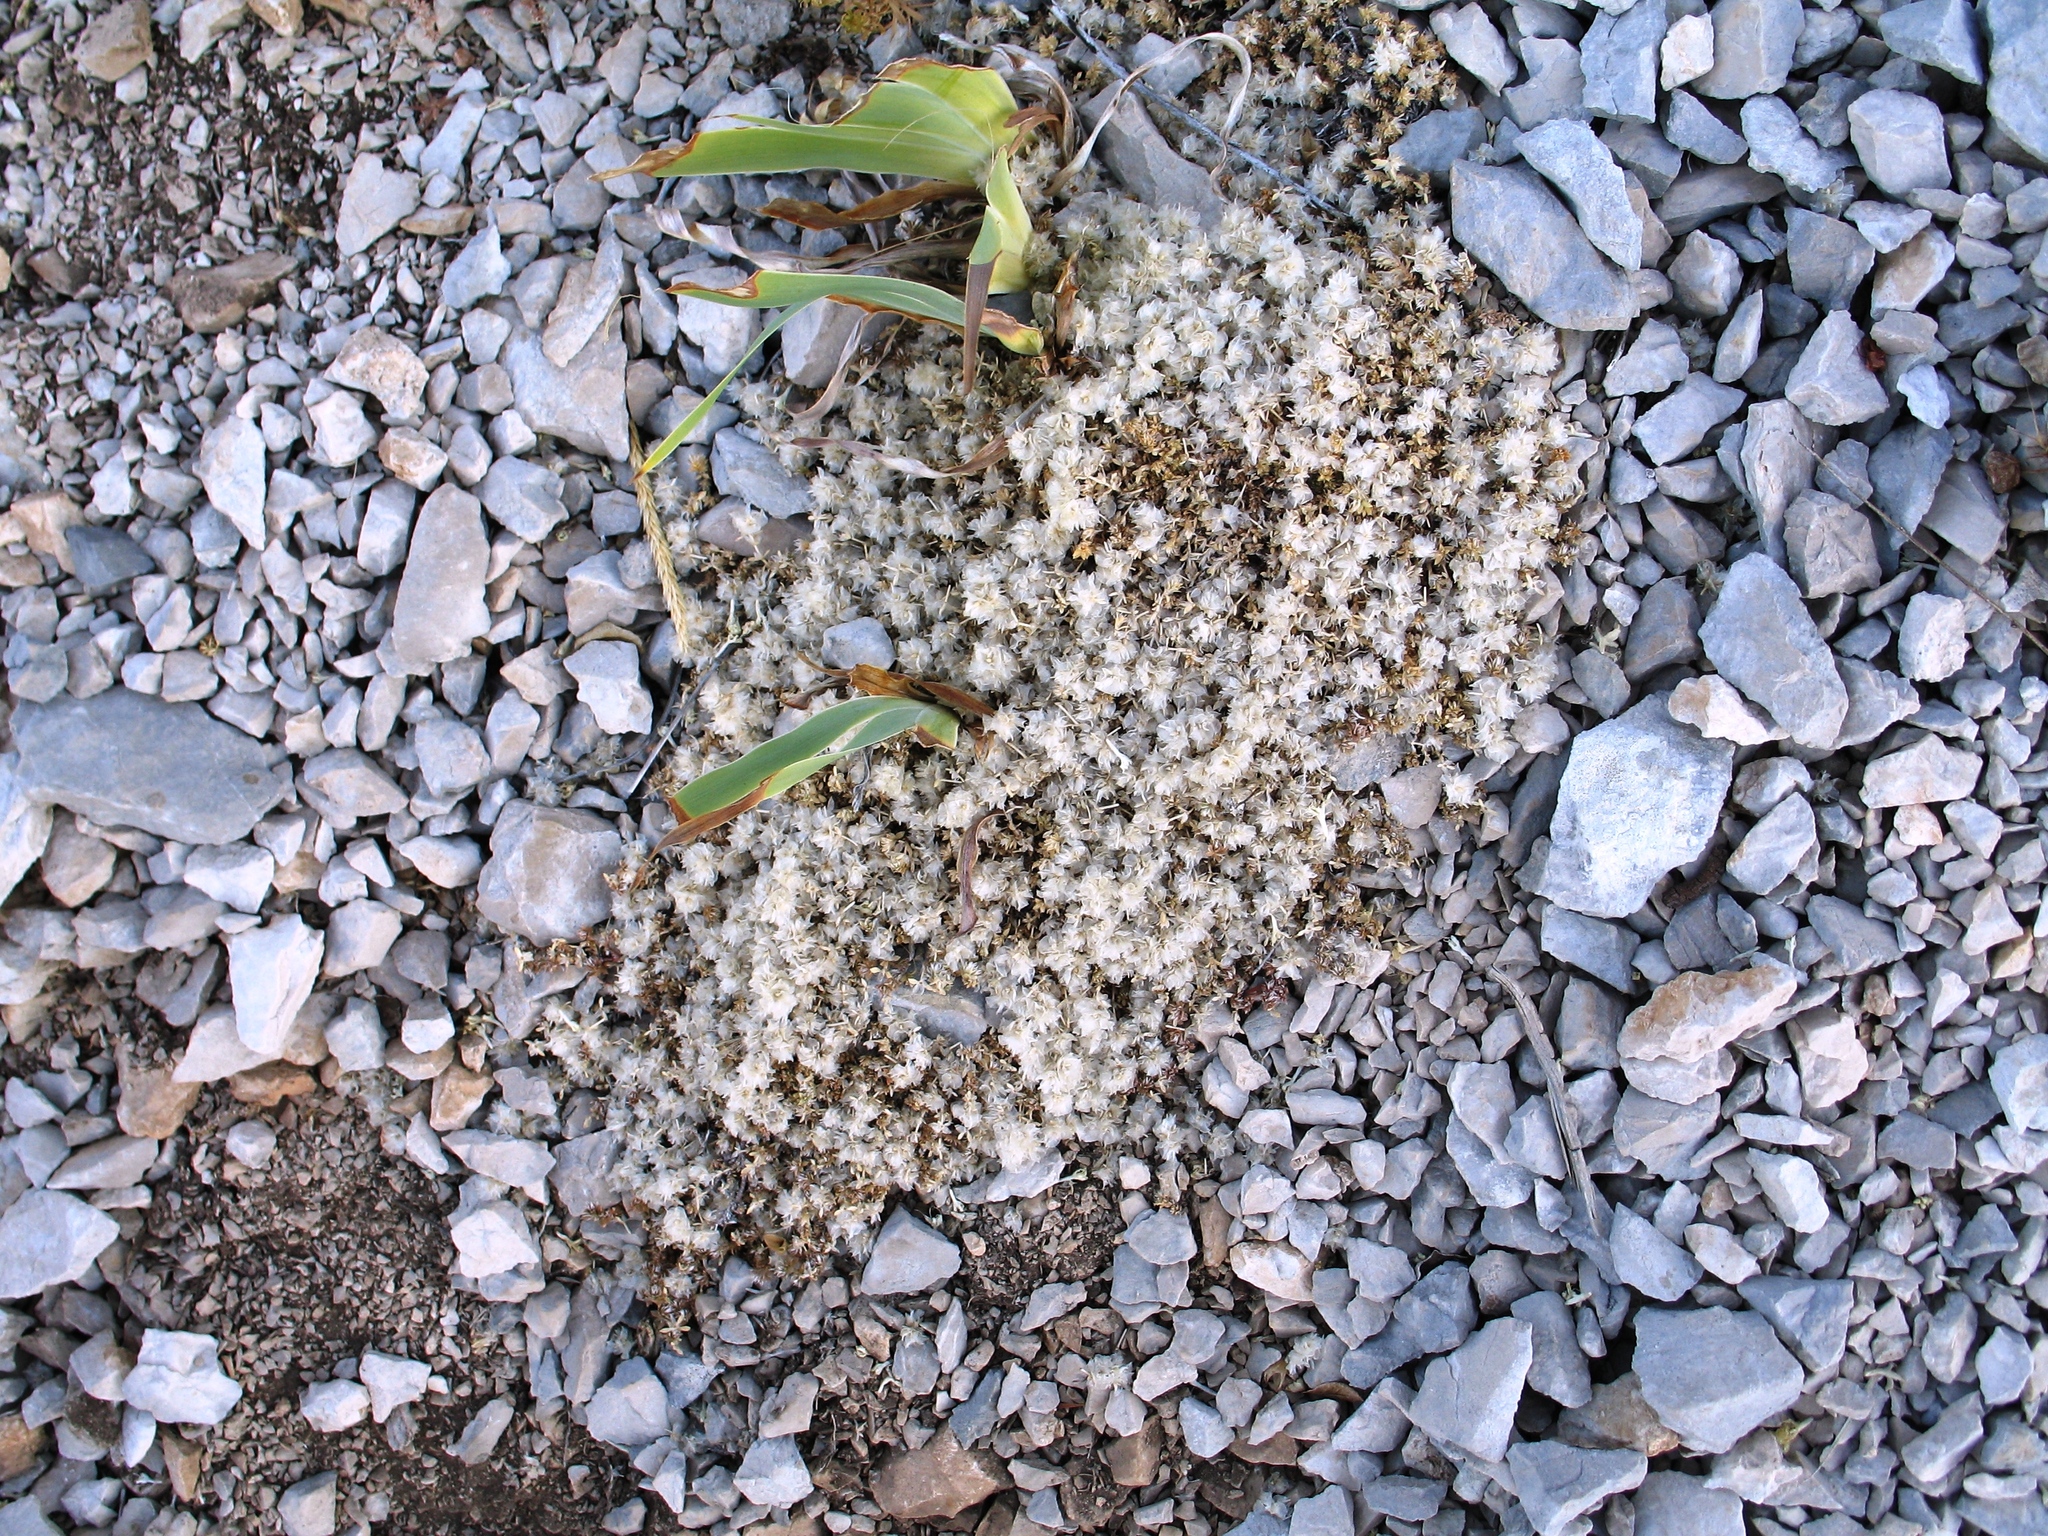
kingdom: Plantae
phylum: Tracheophyta
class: Magnoliopsida
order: Caryophyllales
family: Caryophyllaceae
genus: Paronychia
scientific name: Paronychia kapela
